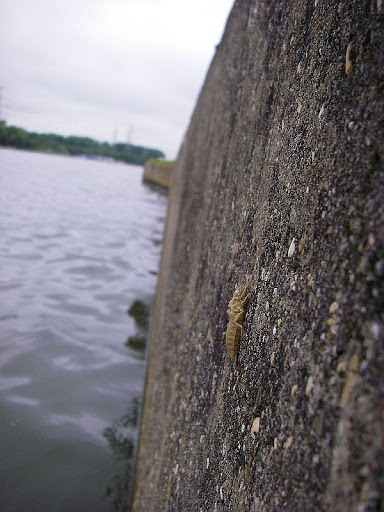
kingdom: Animalia
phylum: Arthropoda
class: Insecta
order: Odonata
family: Gomphidae
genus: Stylurus
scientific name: Stylurus flavipes
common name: River clubtail
